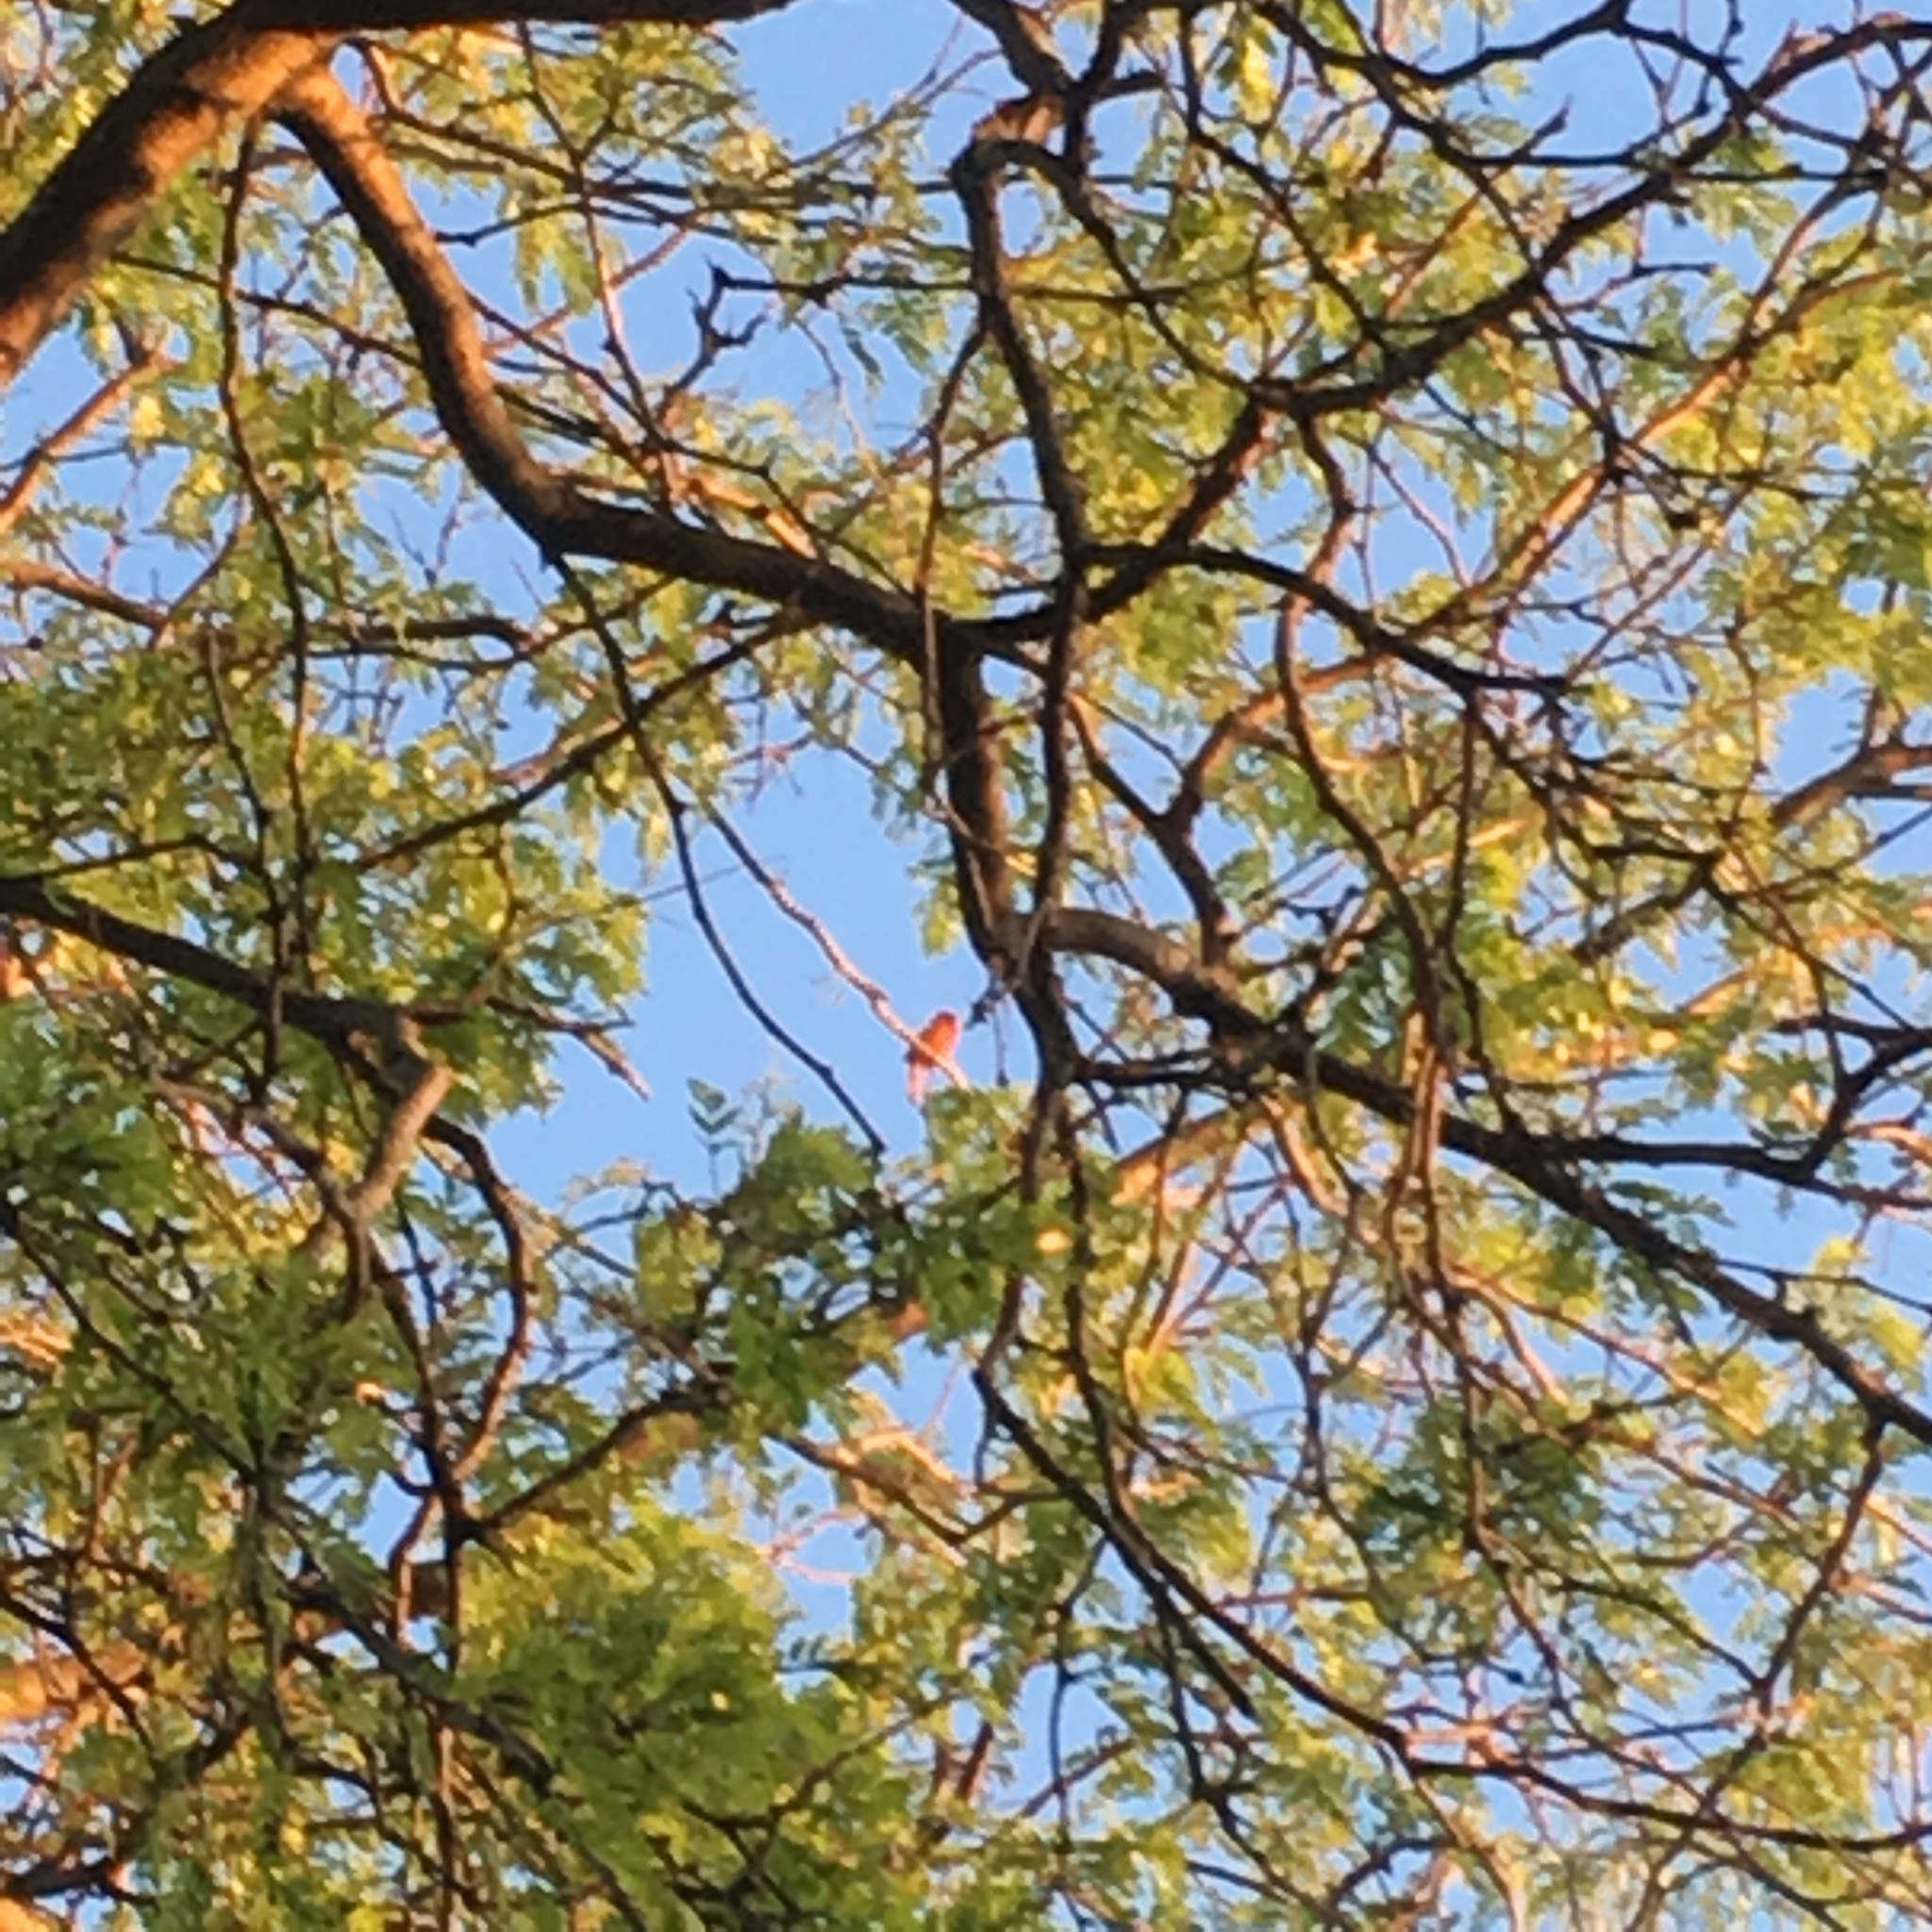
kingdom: Animalia
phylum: Chordata
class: Aves
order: Passeriformes
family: Cardinalidae
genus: Cardinalis
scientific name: Cardinalis cardinalis
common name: Northern cardinal
